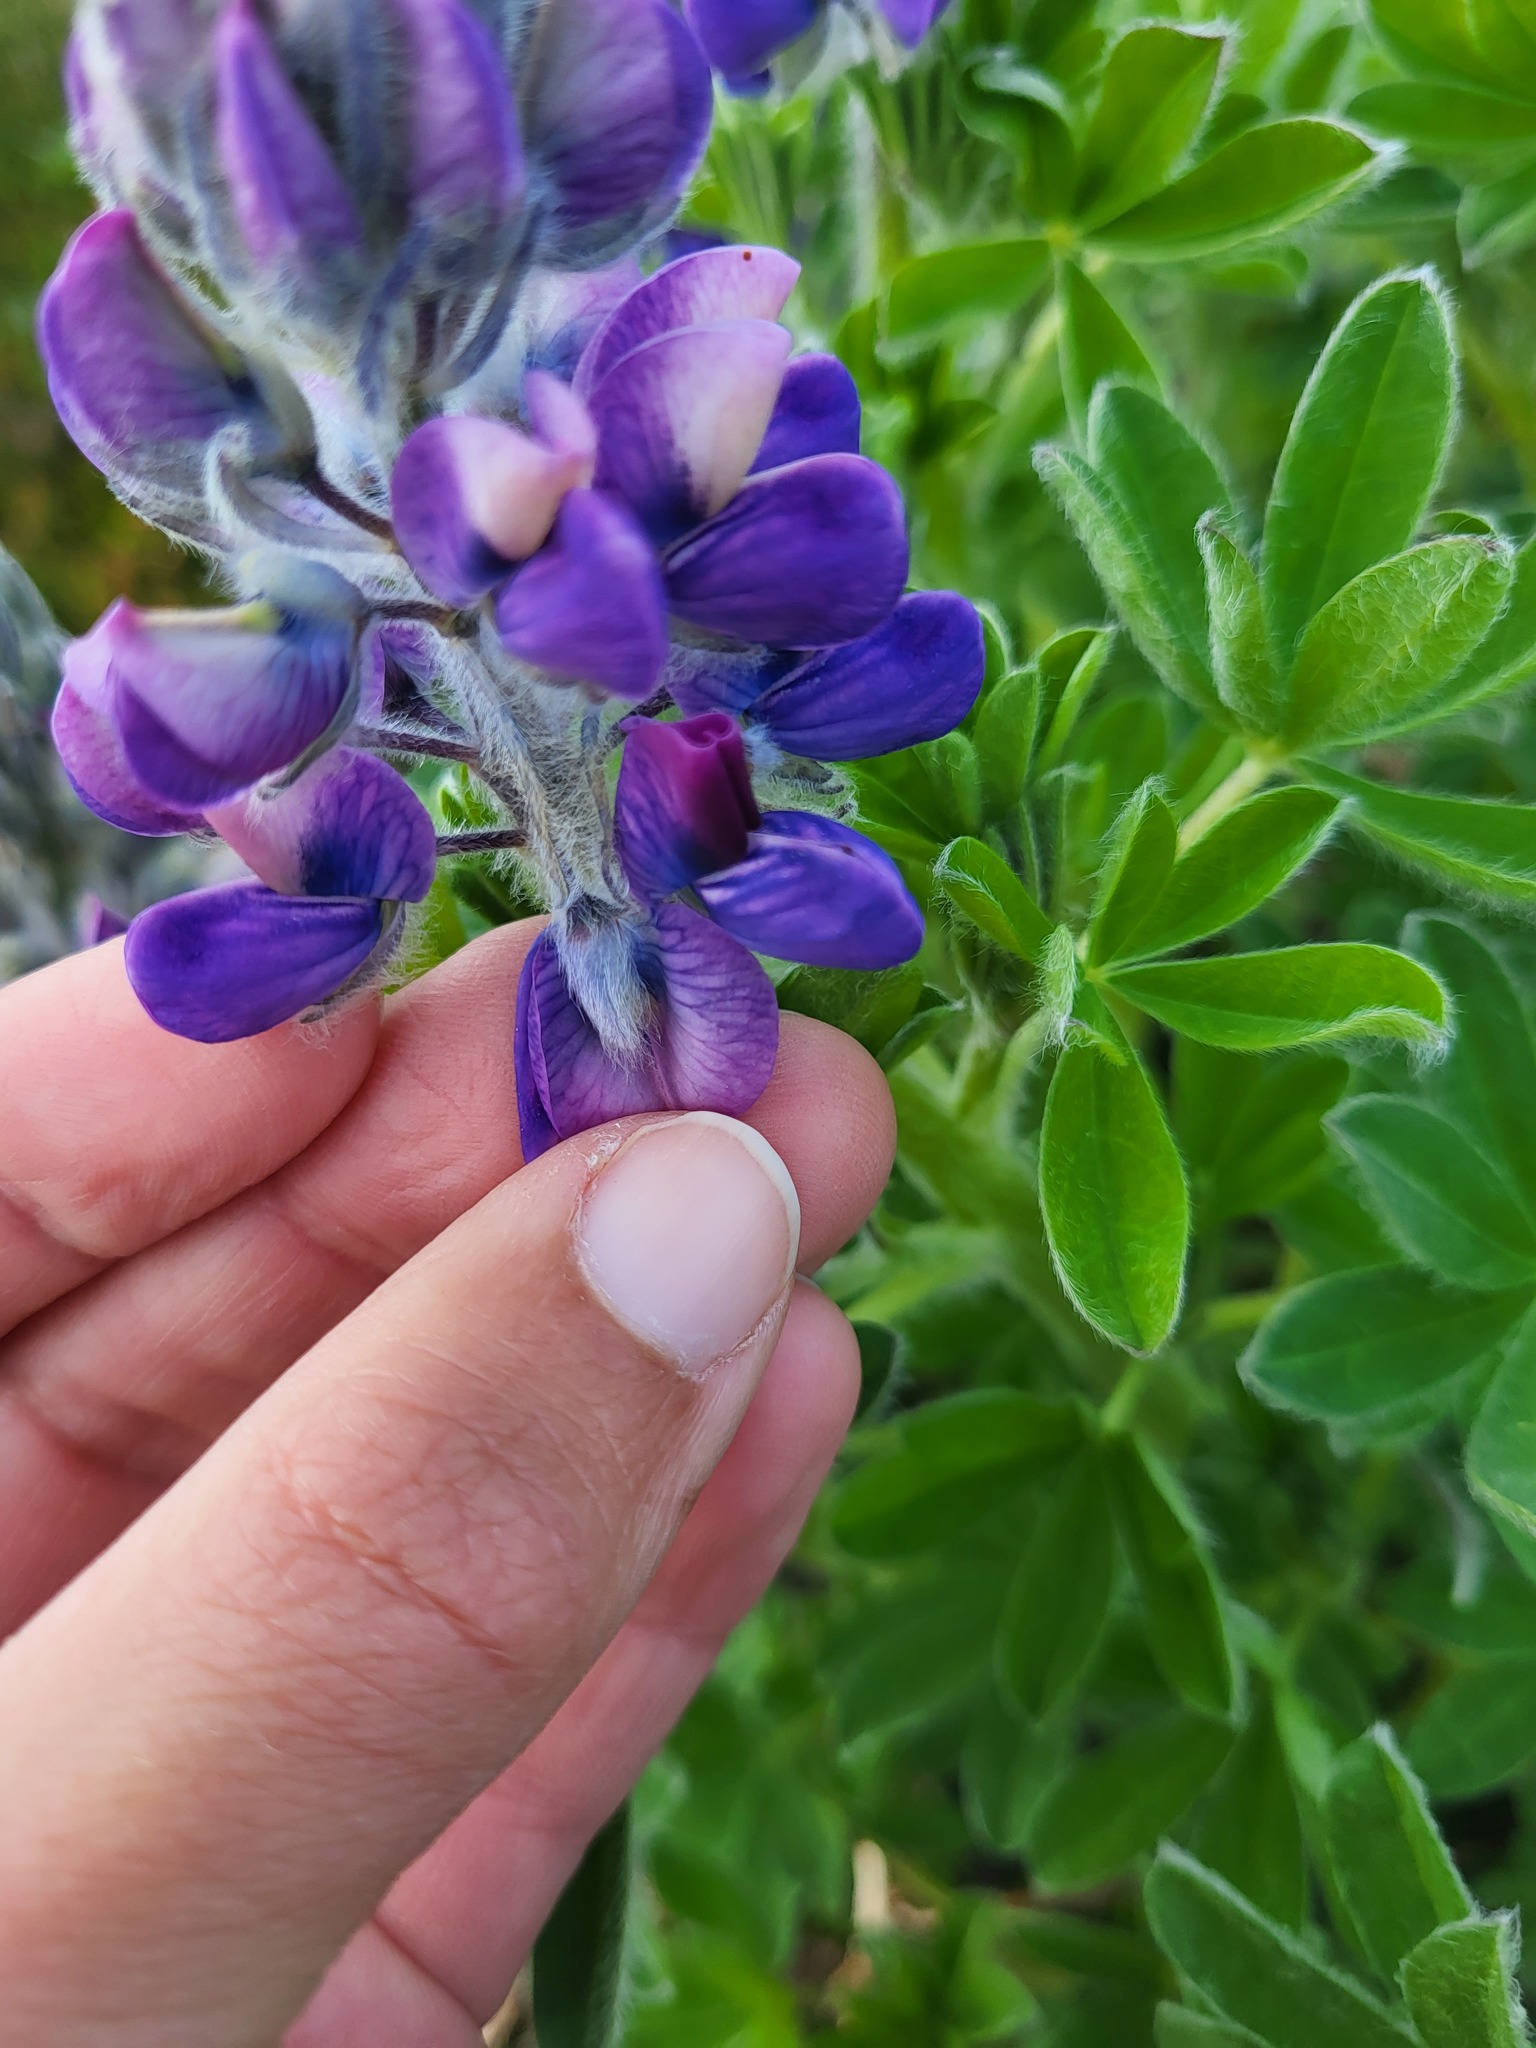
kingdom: Plantae
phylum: Tracheophyta
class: Magnoliopsida
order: Fabales
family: Fabaceae
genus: Lupinus
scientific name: Lupinus nootkatensis
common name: Nootka lupine
